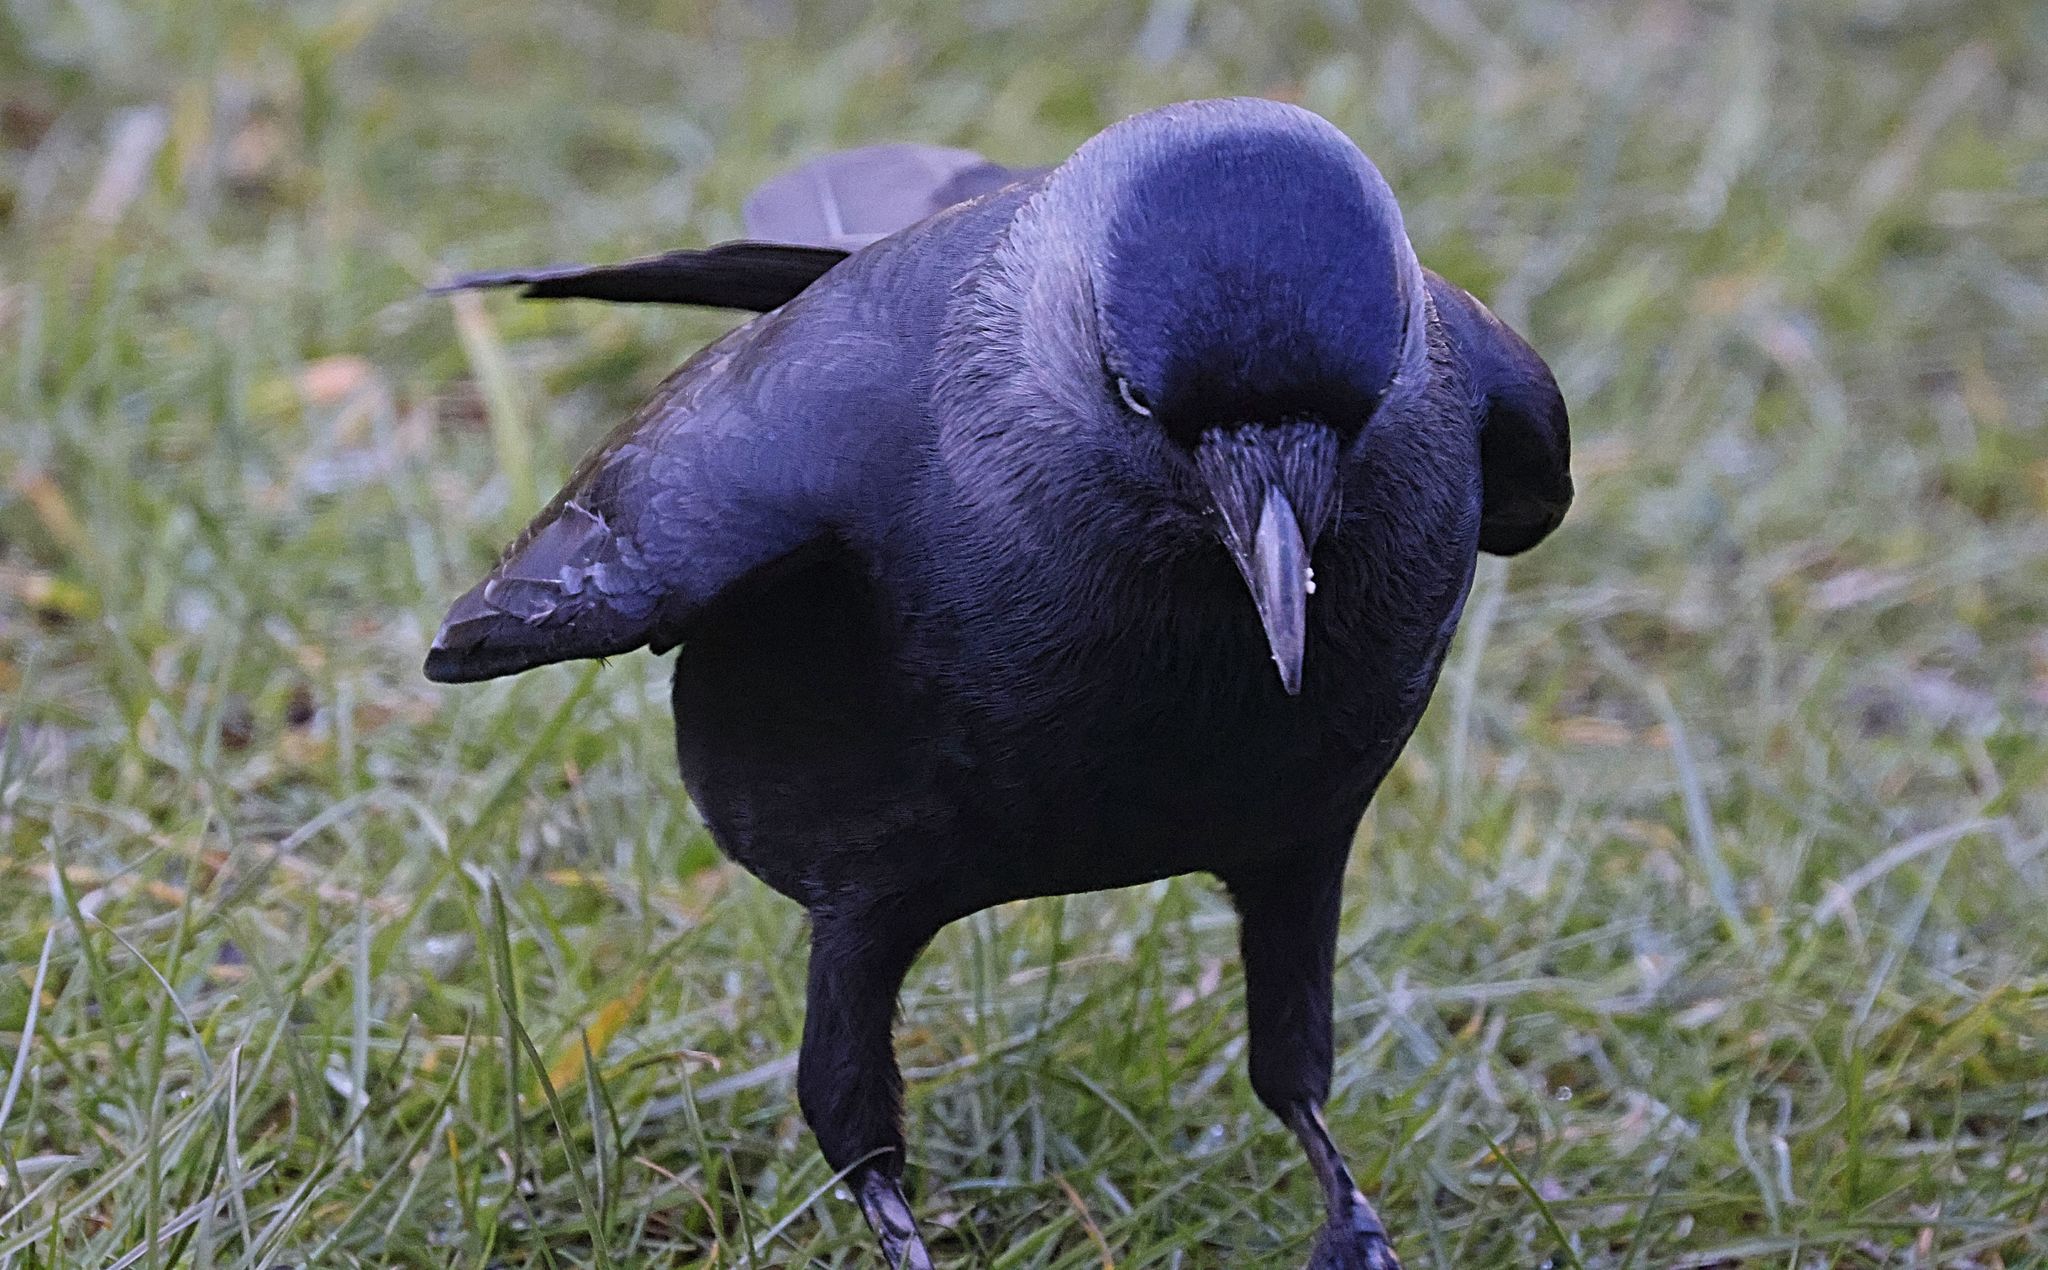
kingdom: Animalia
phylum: Chordata
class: Aves
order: Passeriformes
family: Corvidae
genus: Coloeus
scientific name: Coloeus monedula
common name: Western jackdaw
